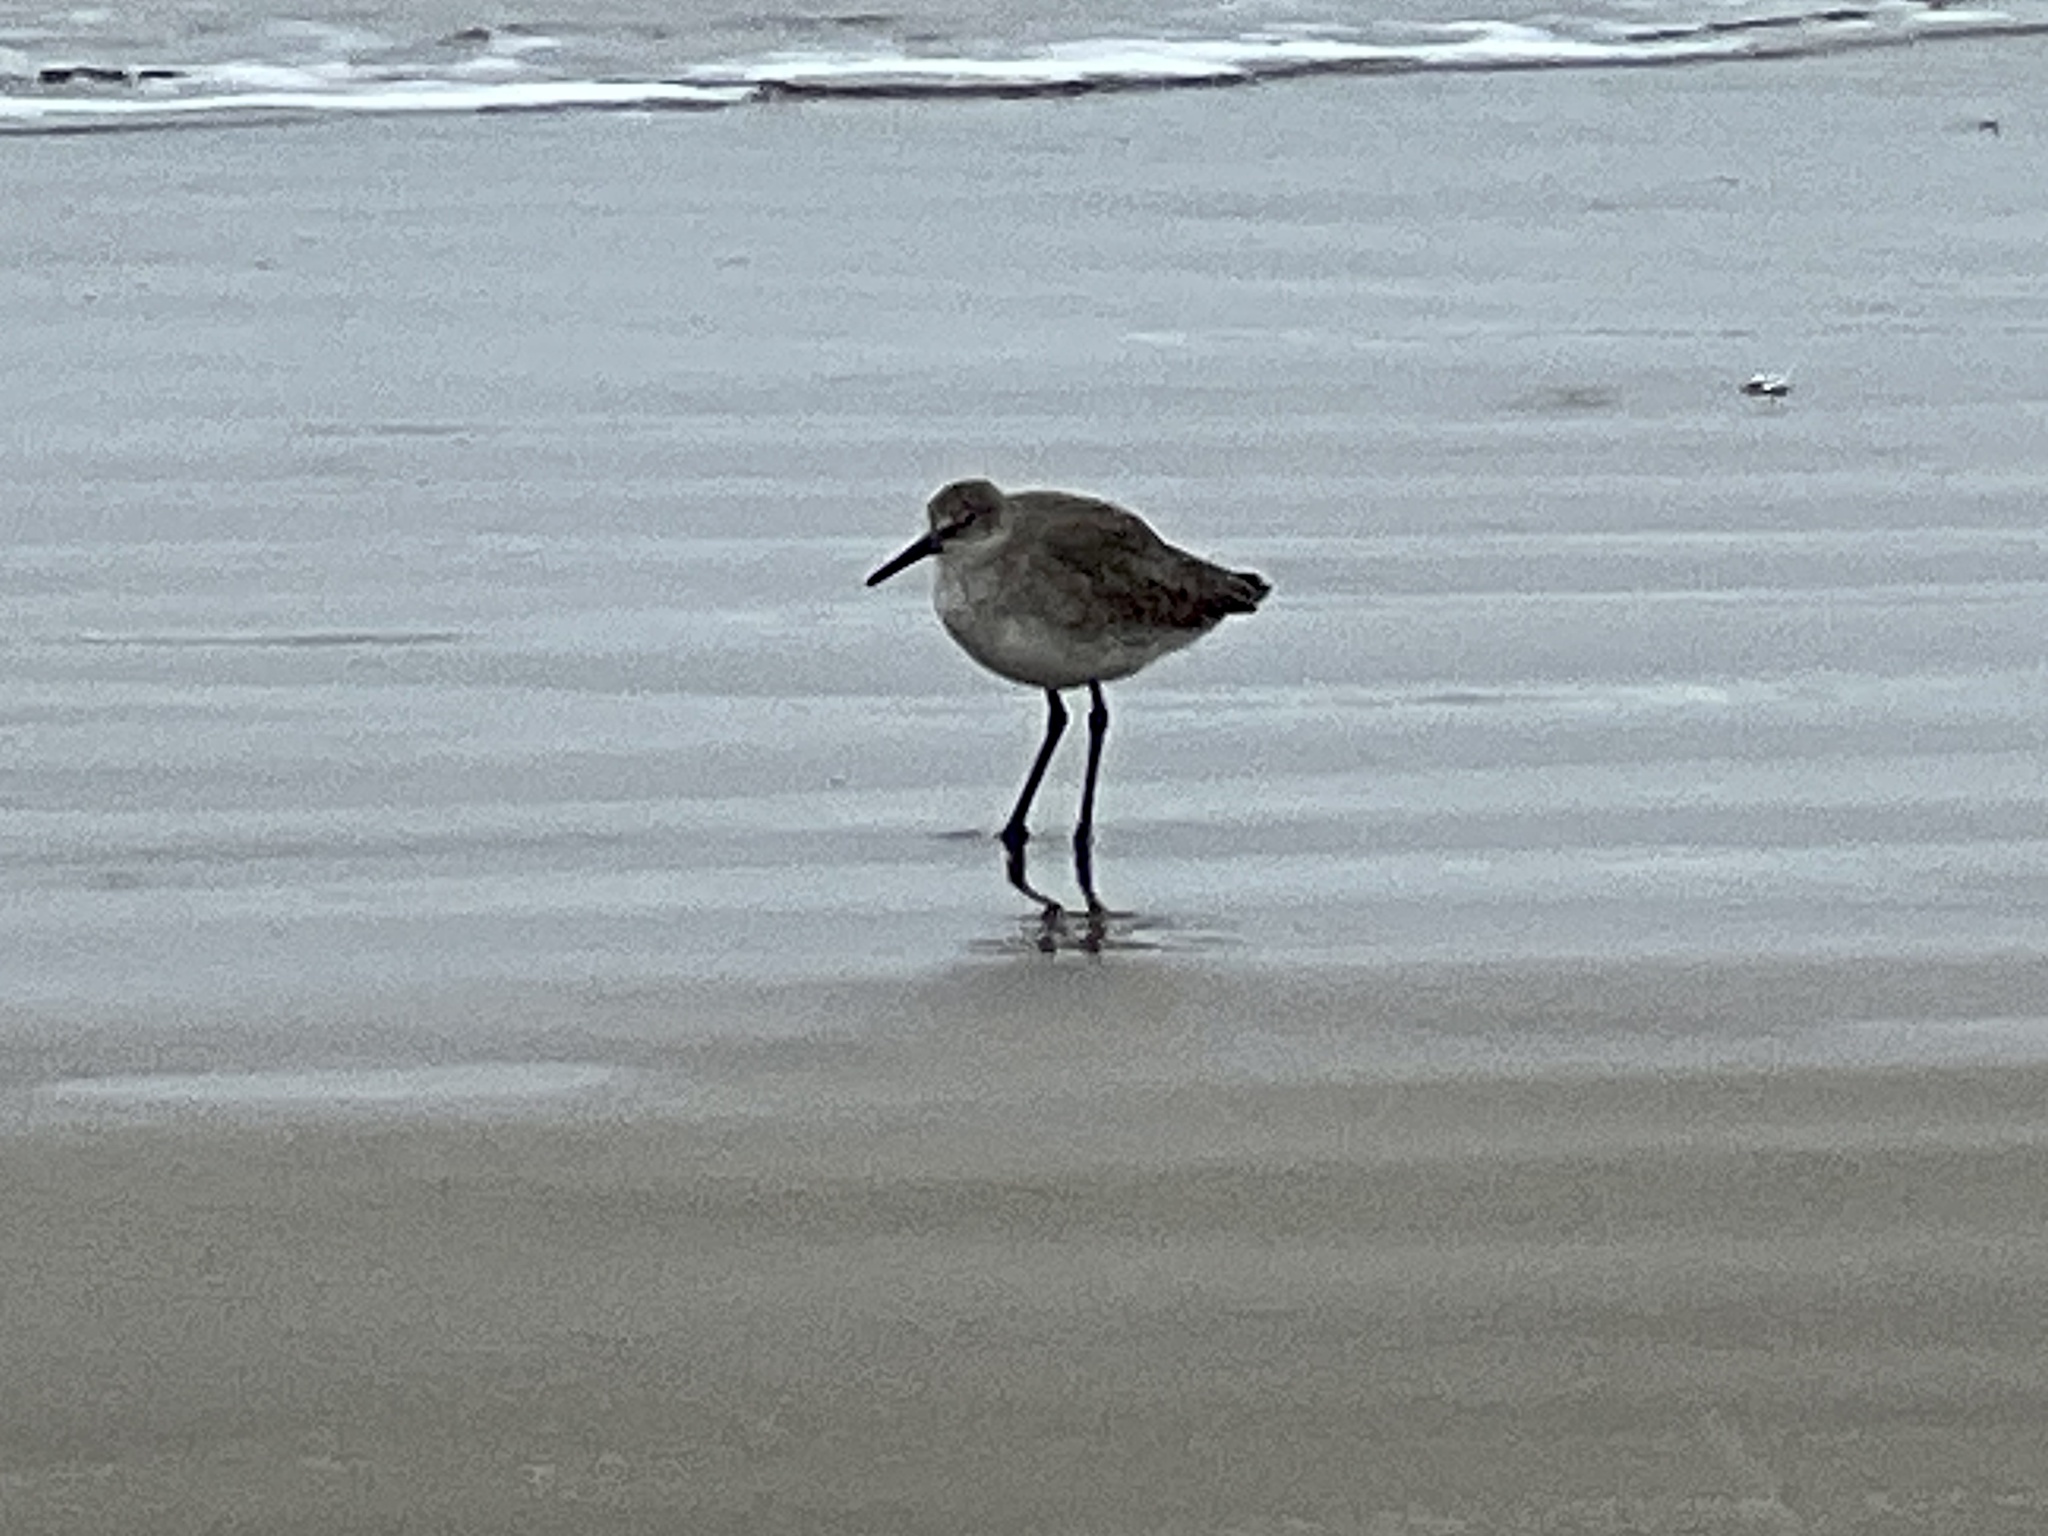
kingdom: Animalia
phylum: Chordata
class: Aves
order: Charadriiformes
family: Scolopacidae
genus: Tringa
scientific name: Tringa semipalmata
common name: Willet
